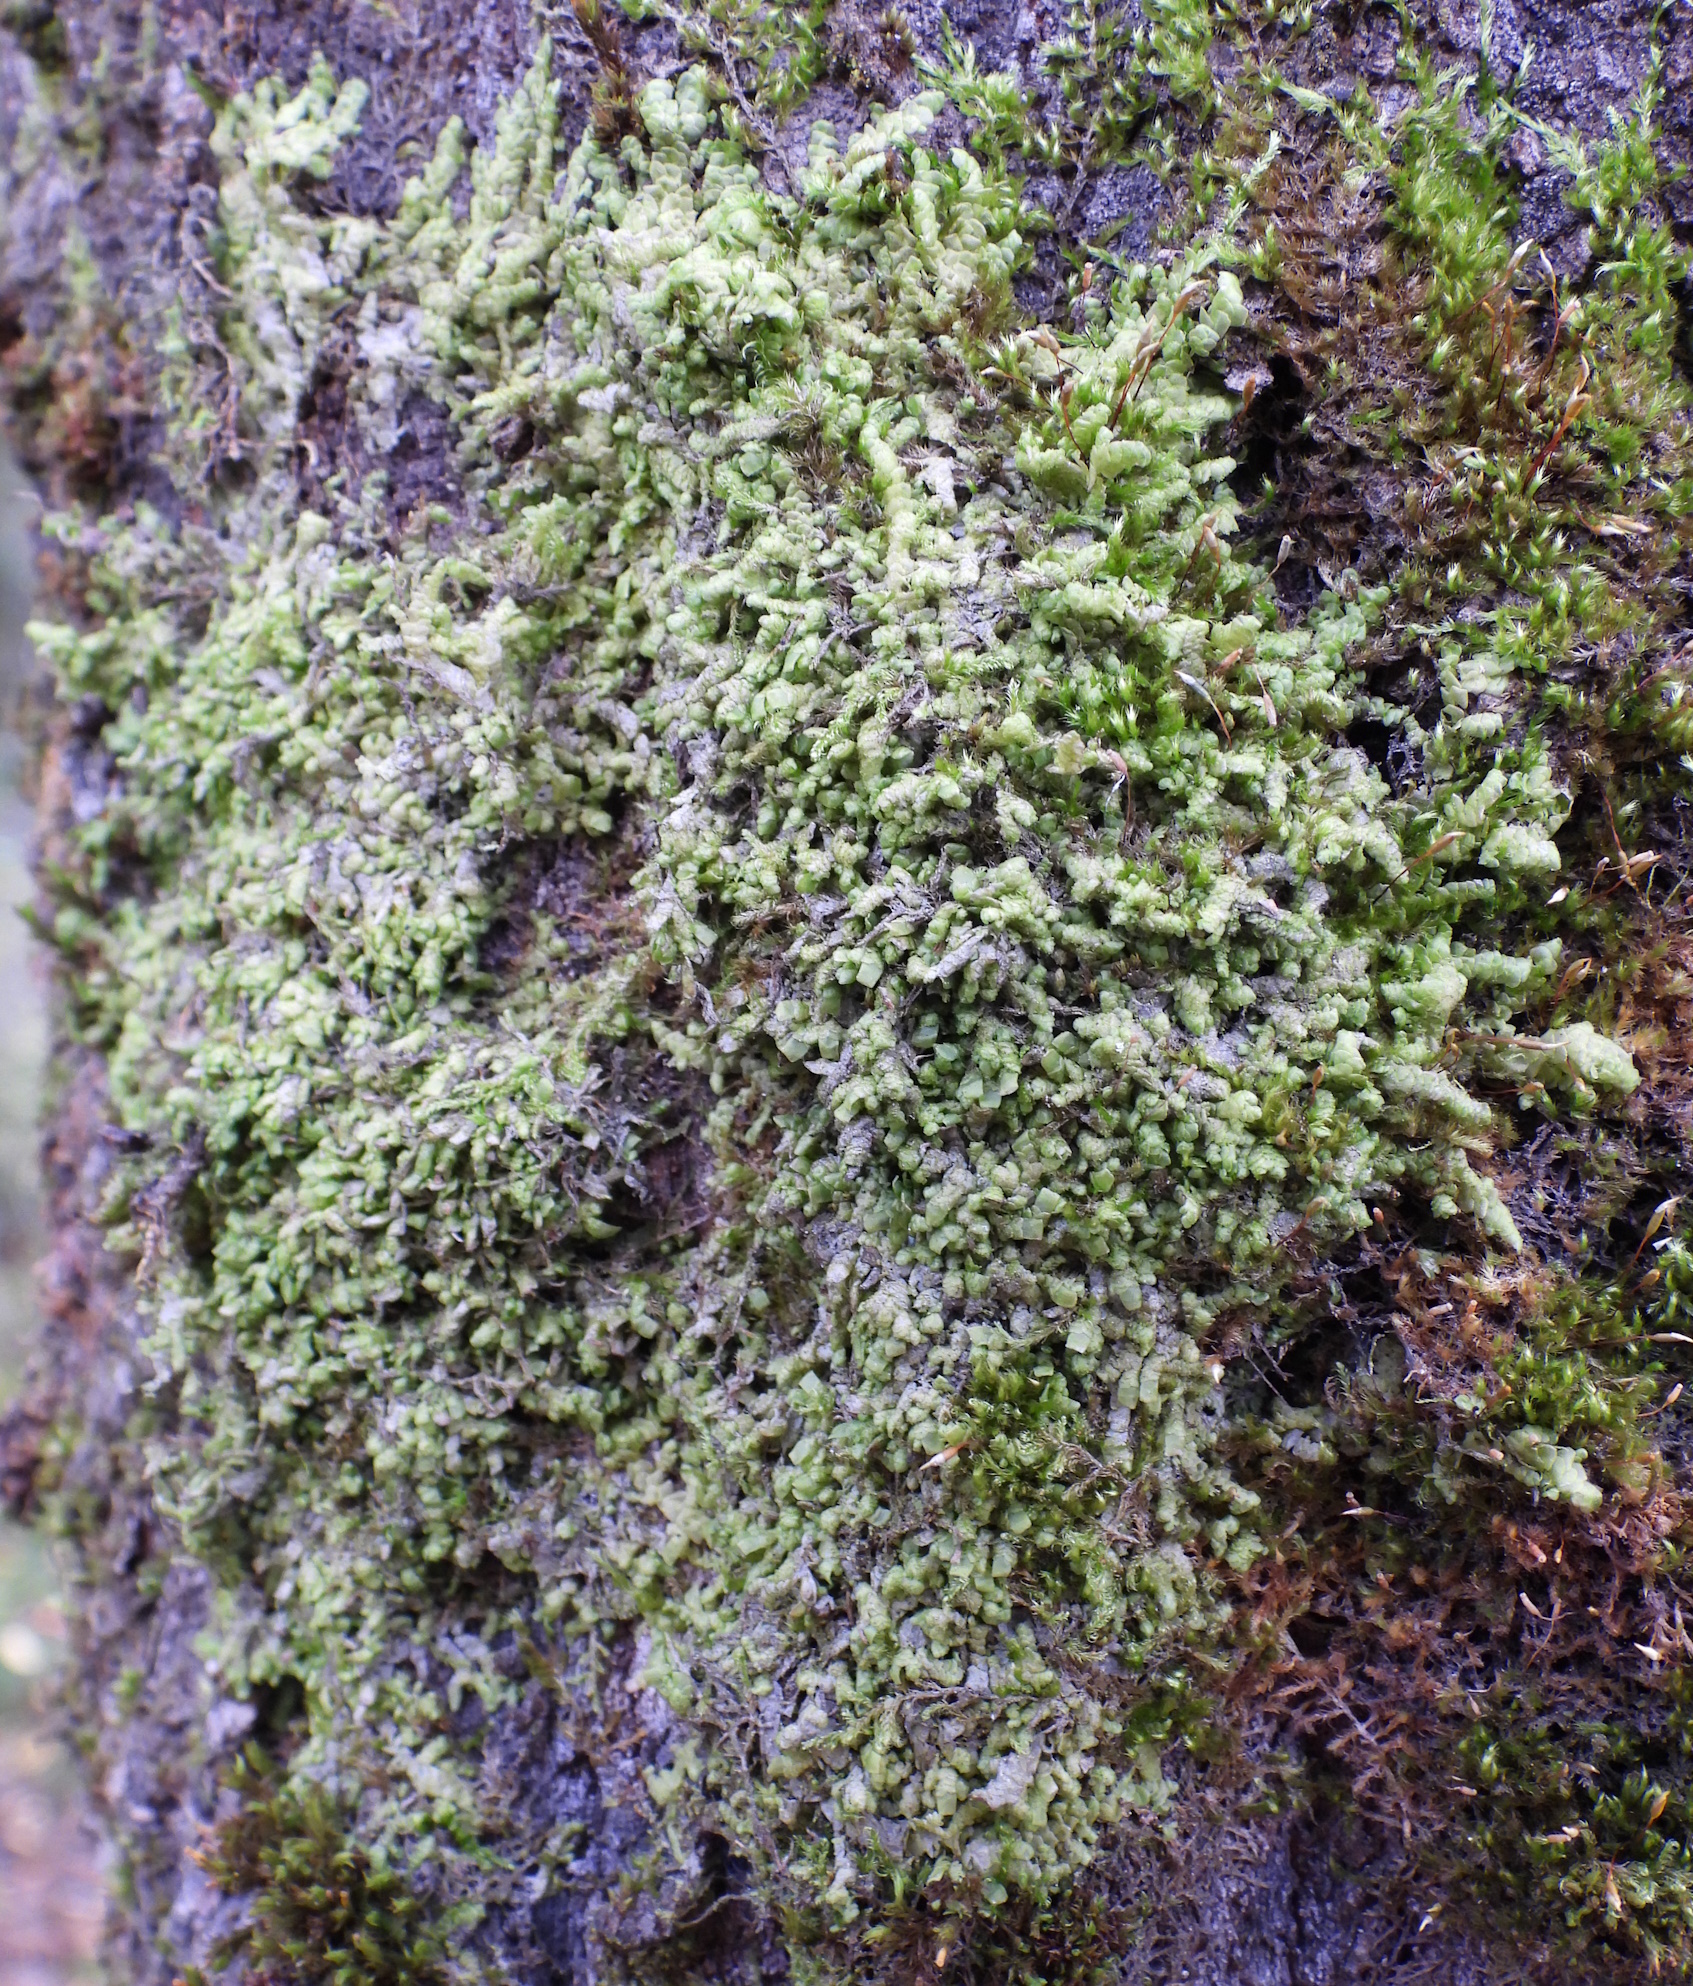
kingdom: Plantae
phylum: Marchantiophyta
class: Jungermanniopsida
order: Porellales
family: Radulaceae
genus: Radula
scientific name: Radula complanata
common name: Flat-leaved scalewort
